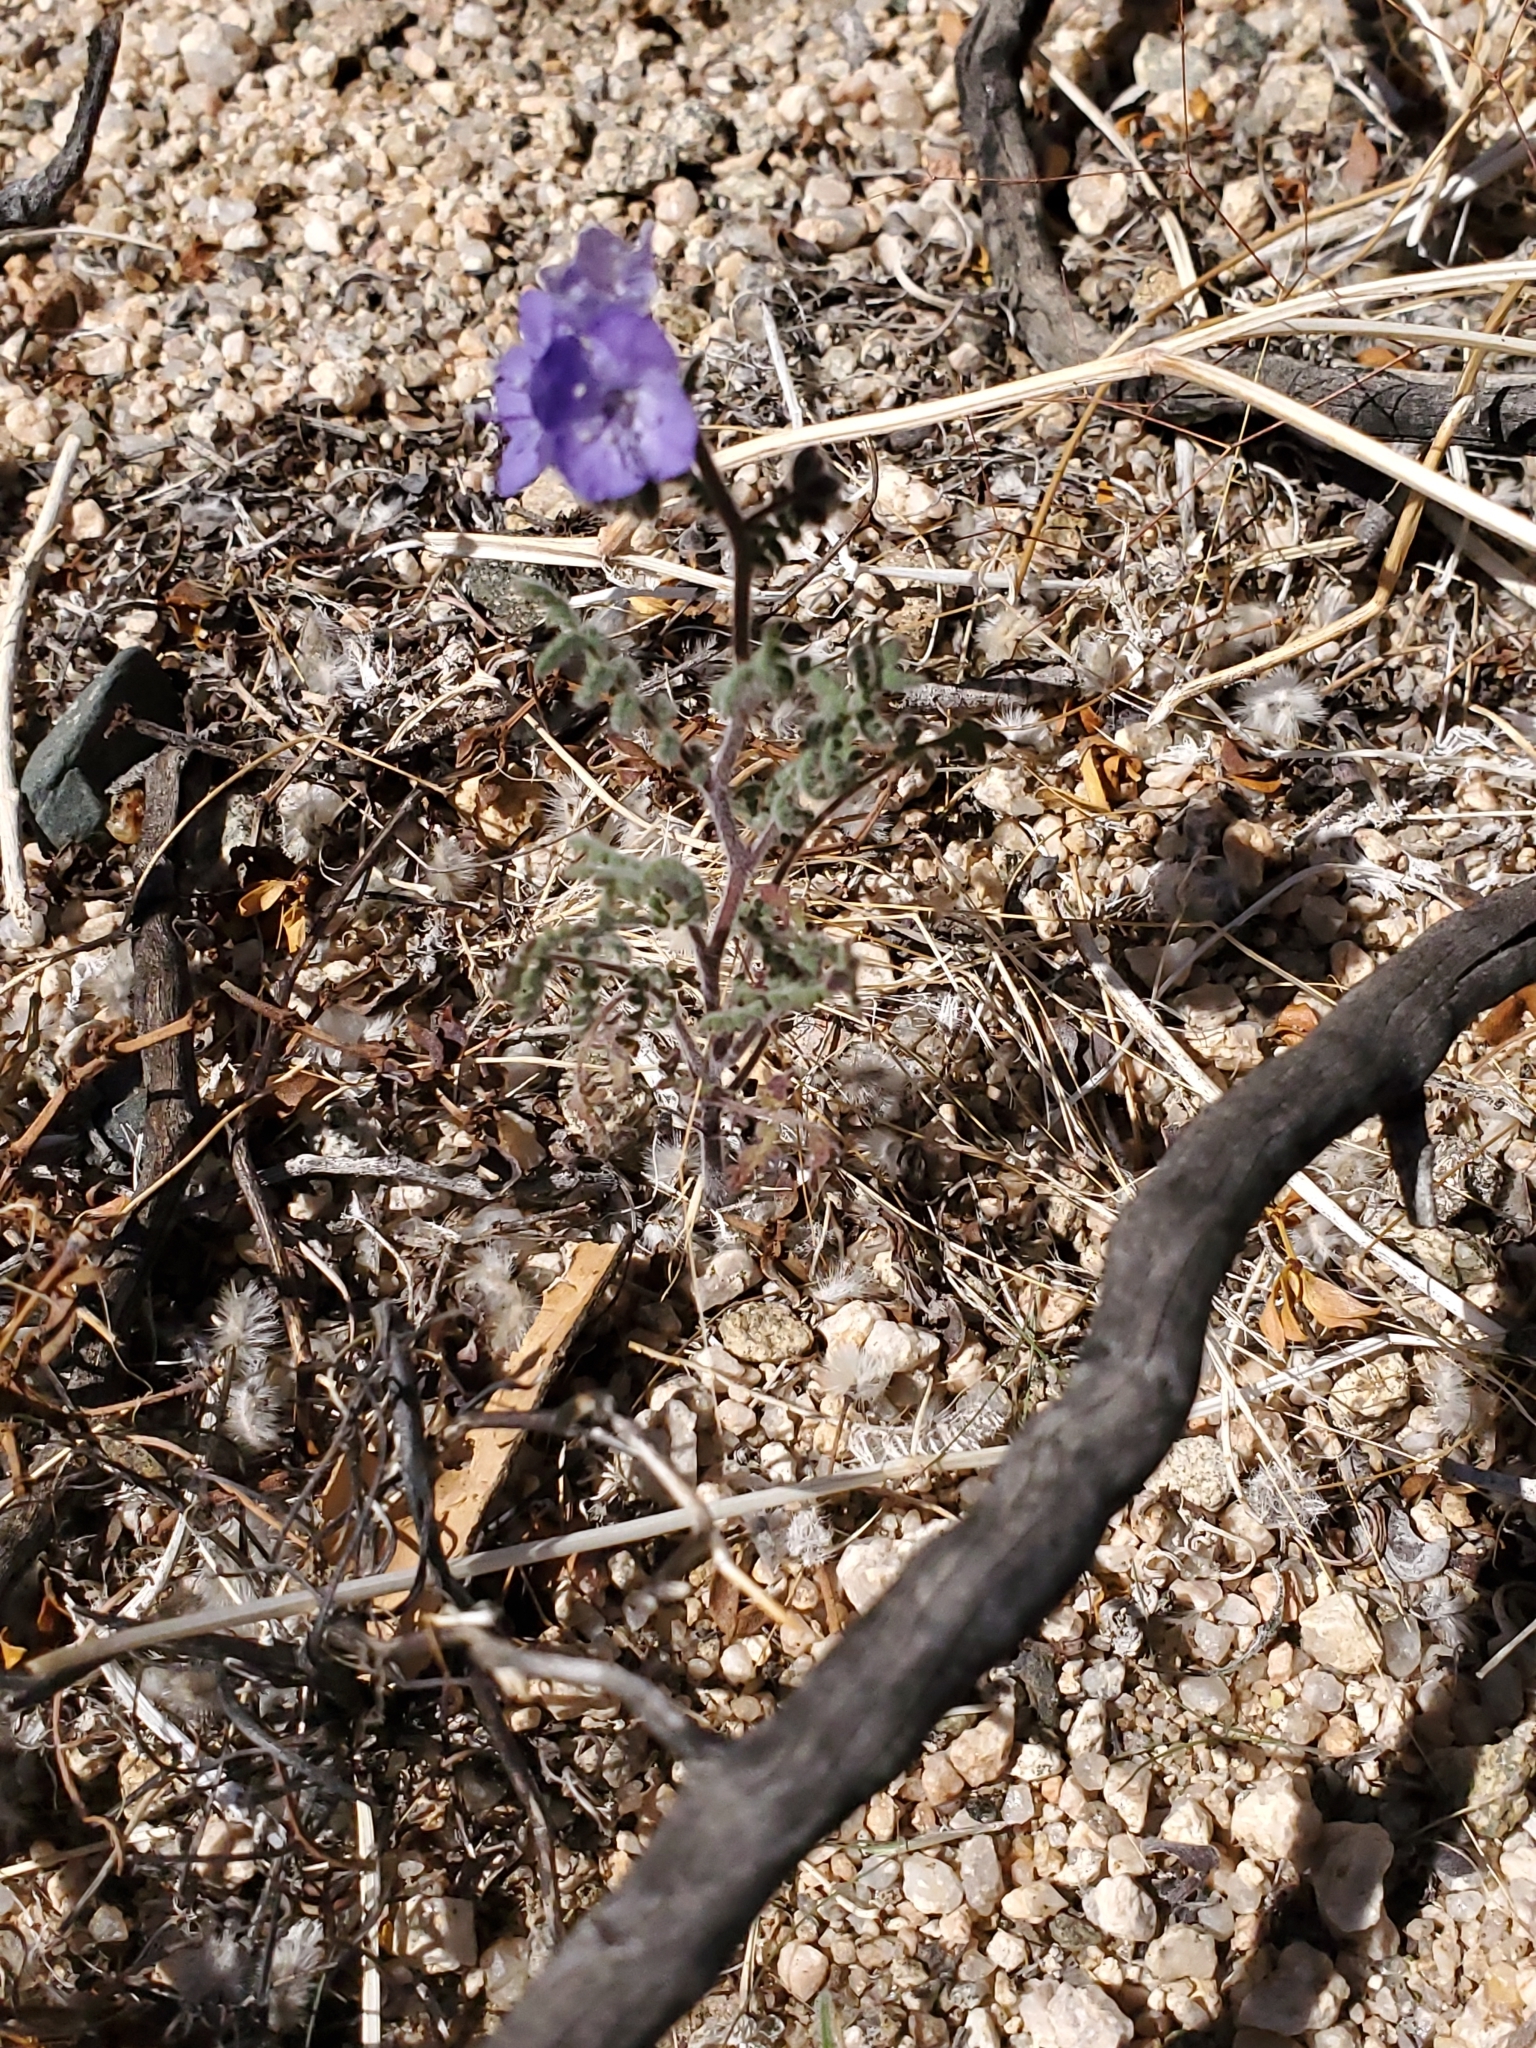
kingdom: Plantae
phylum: Tracheophyta
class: Magnoliopsida
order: Boraginales
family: Hydrophyllaceae
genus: Phacelia
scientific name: Phacelia distans
